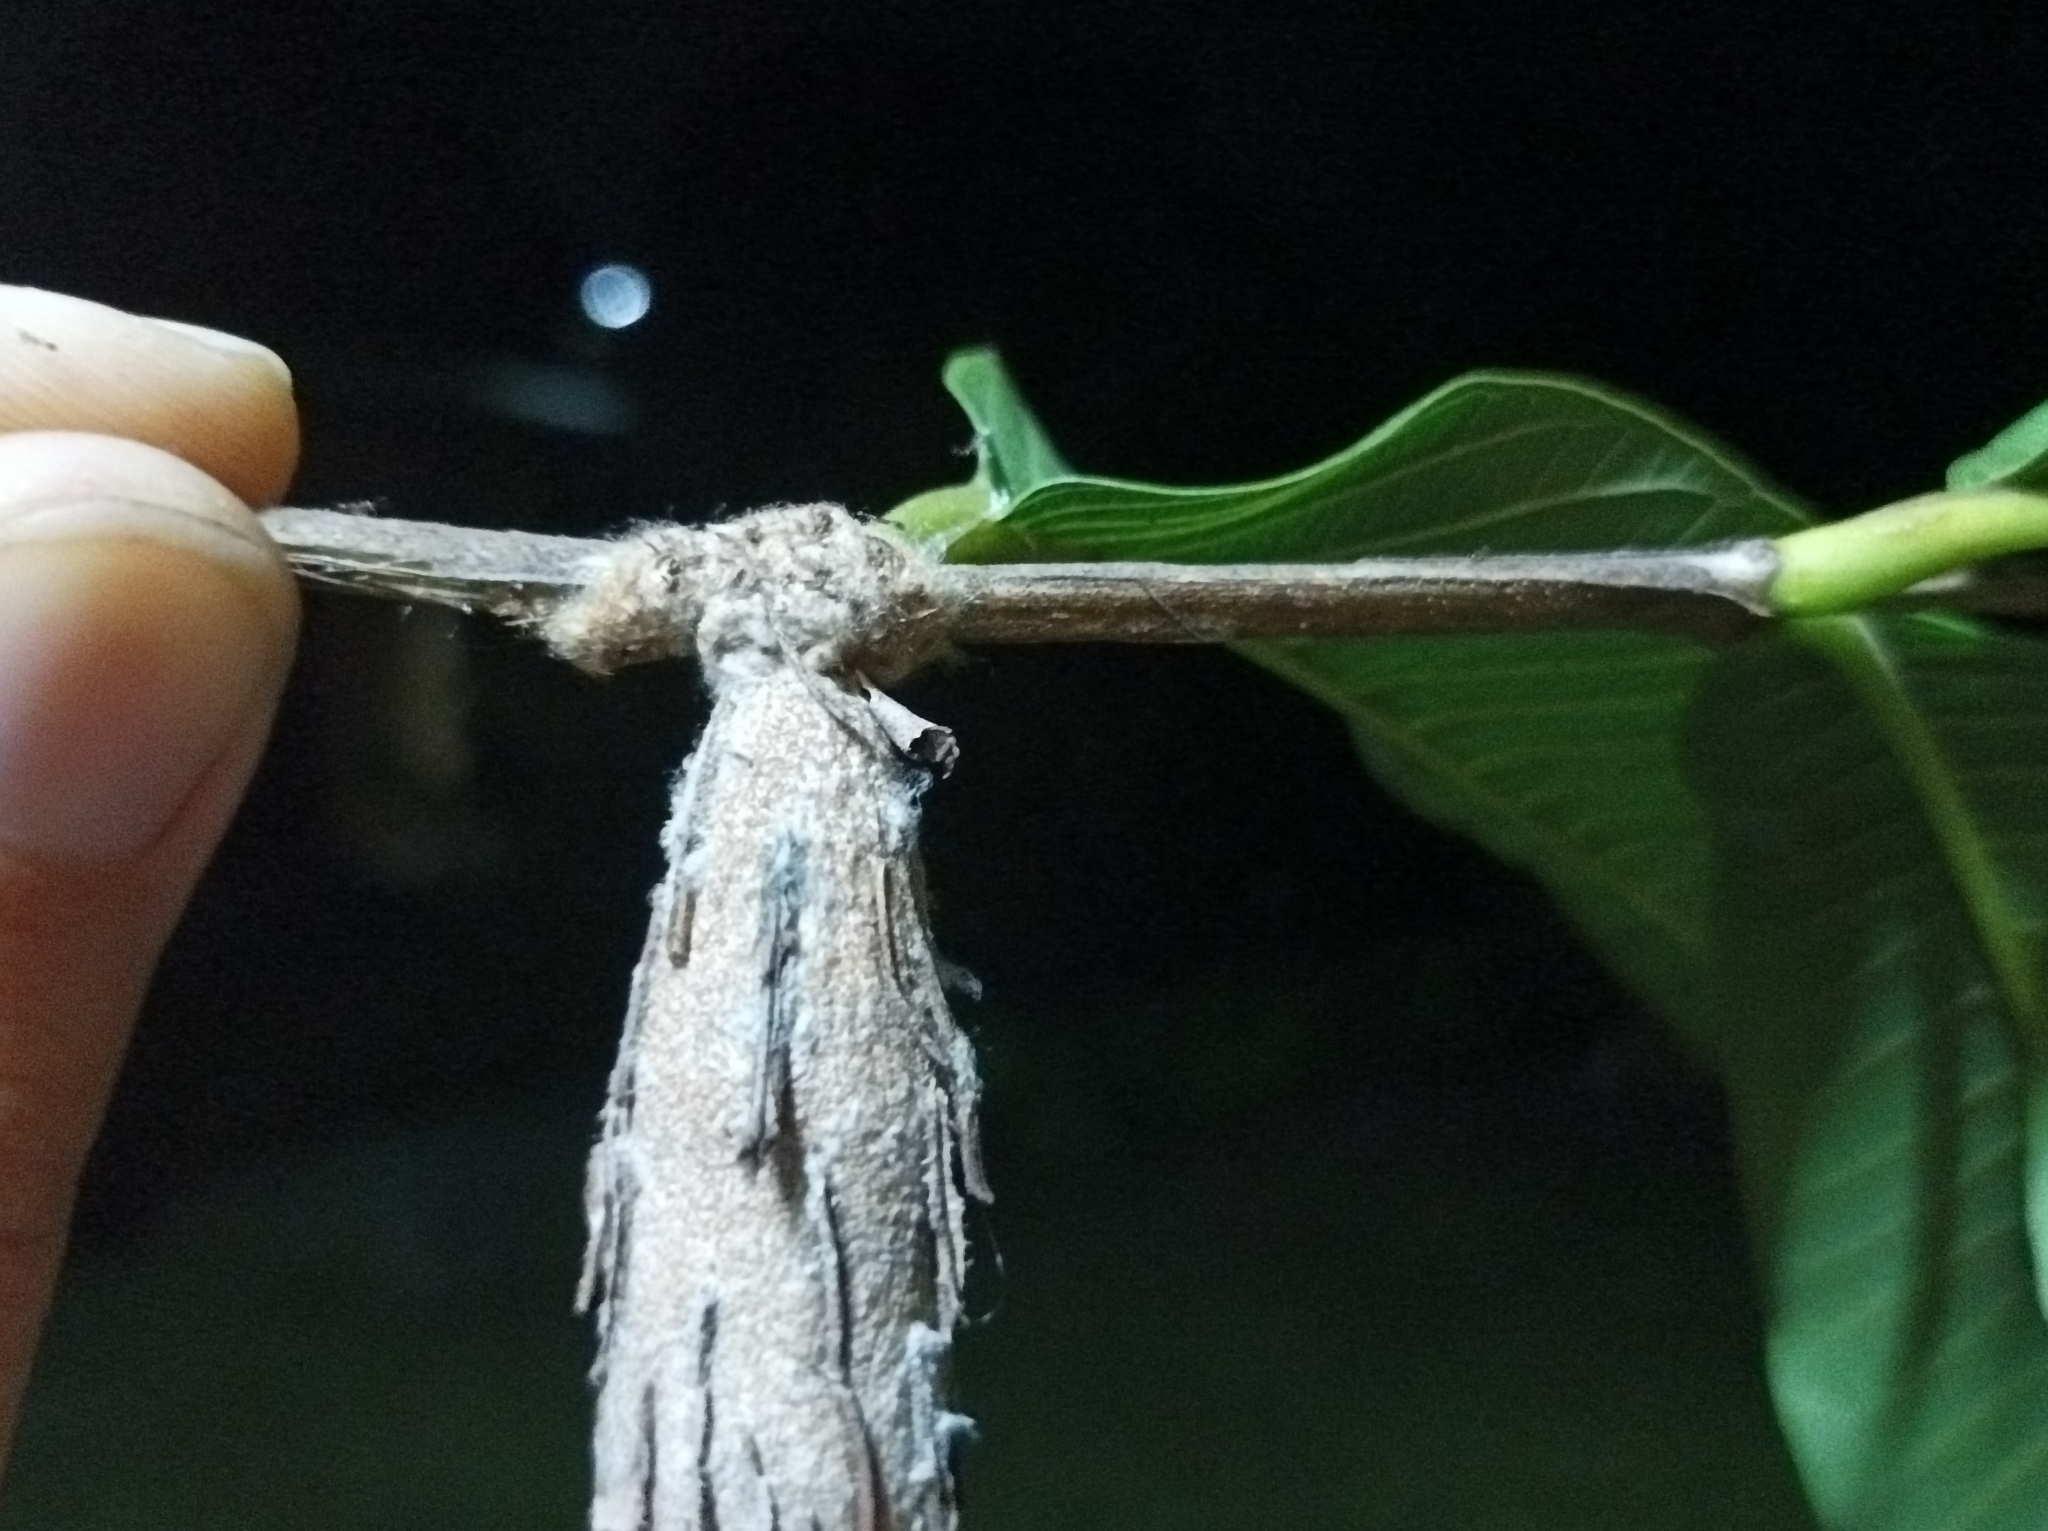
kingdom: Animalia
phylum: Arthropoda
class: Insecta
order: Lepidoptera
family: Psychidae
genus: Metura
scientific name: Metura oceanica
